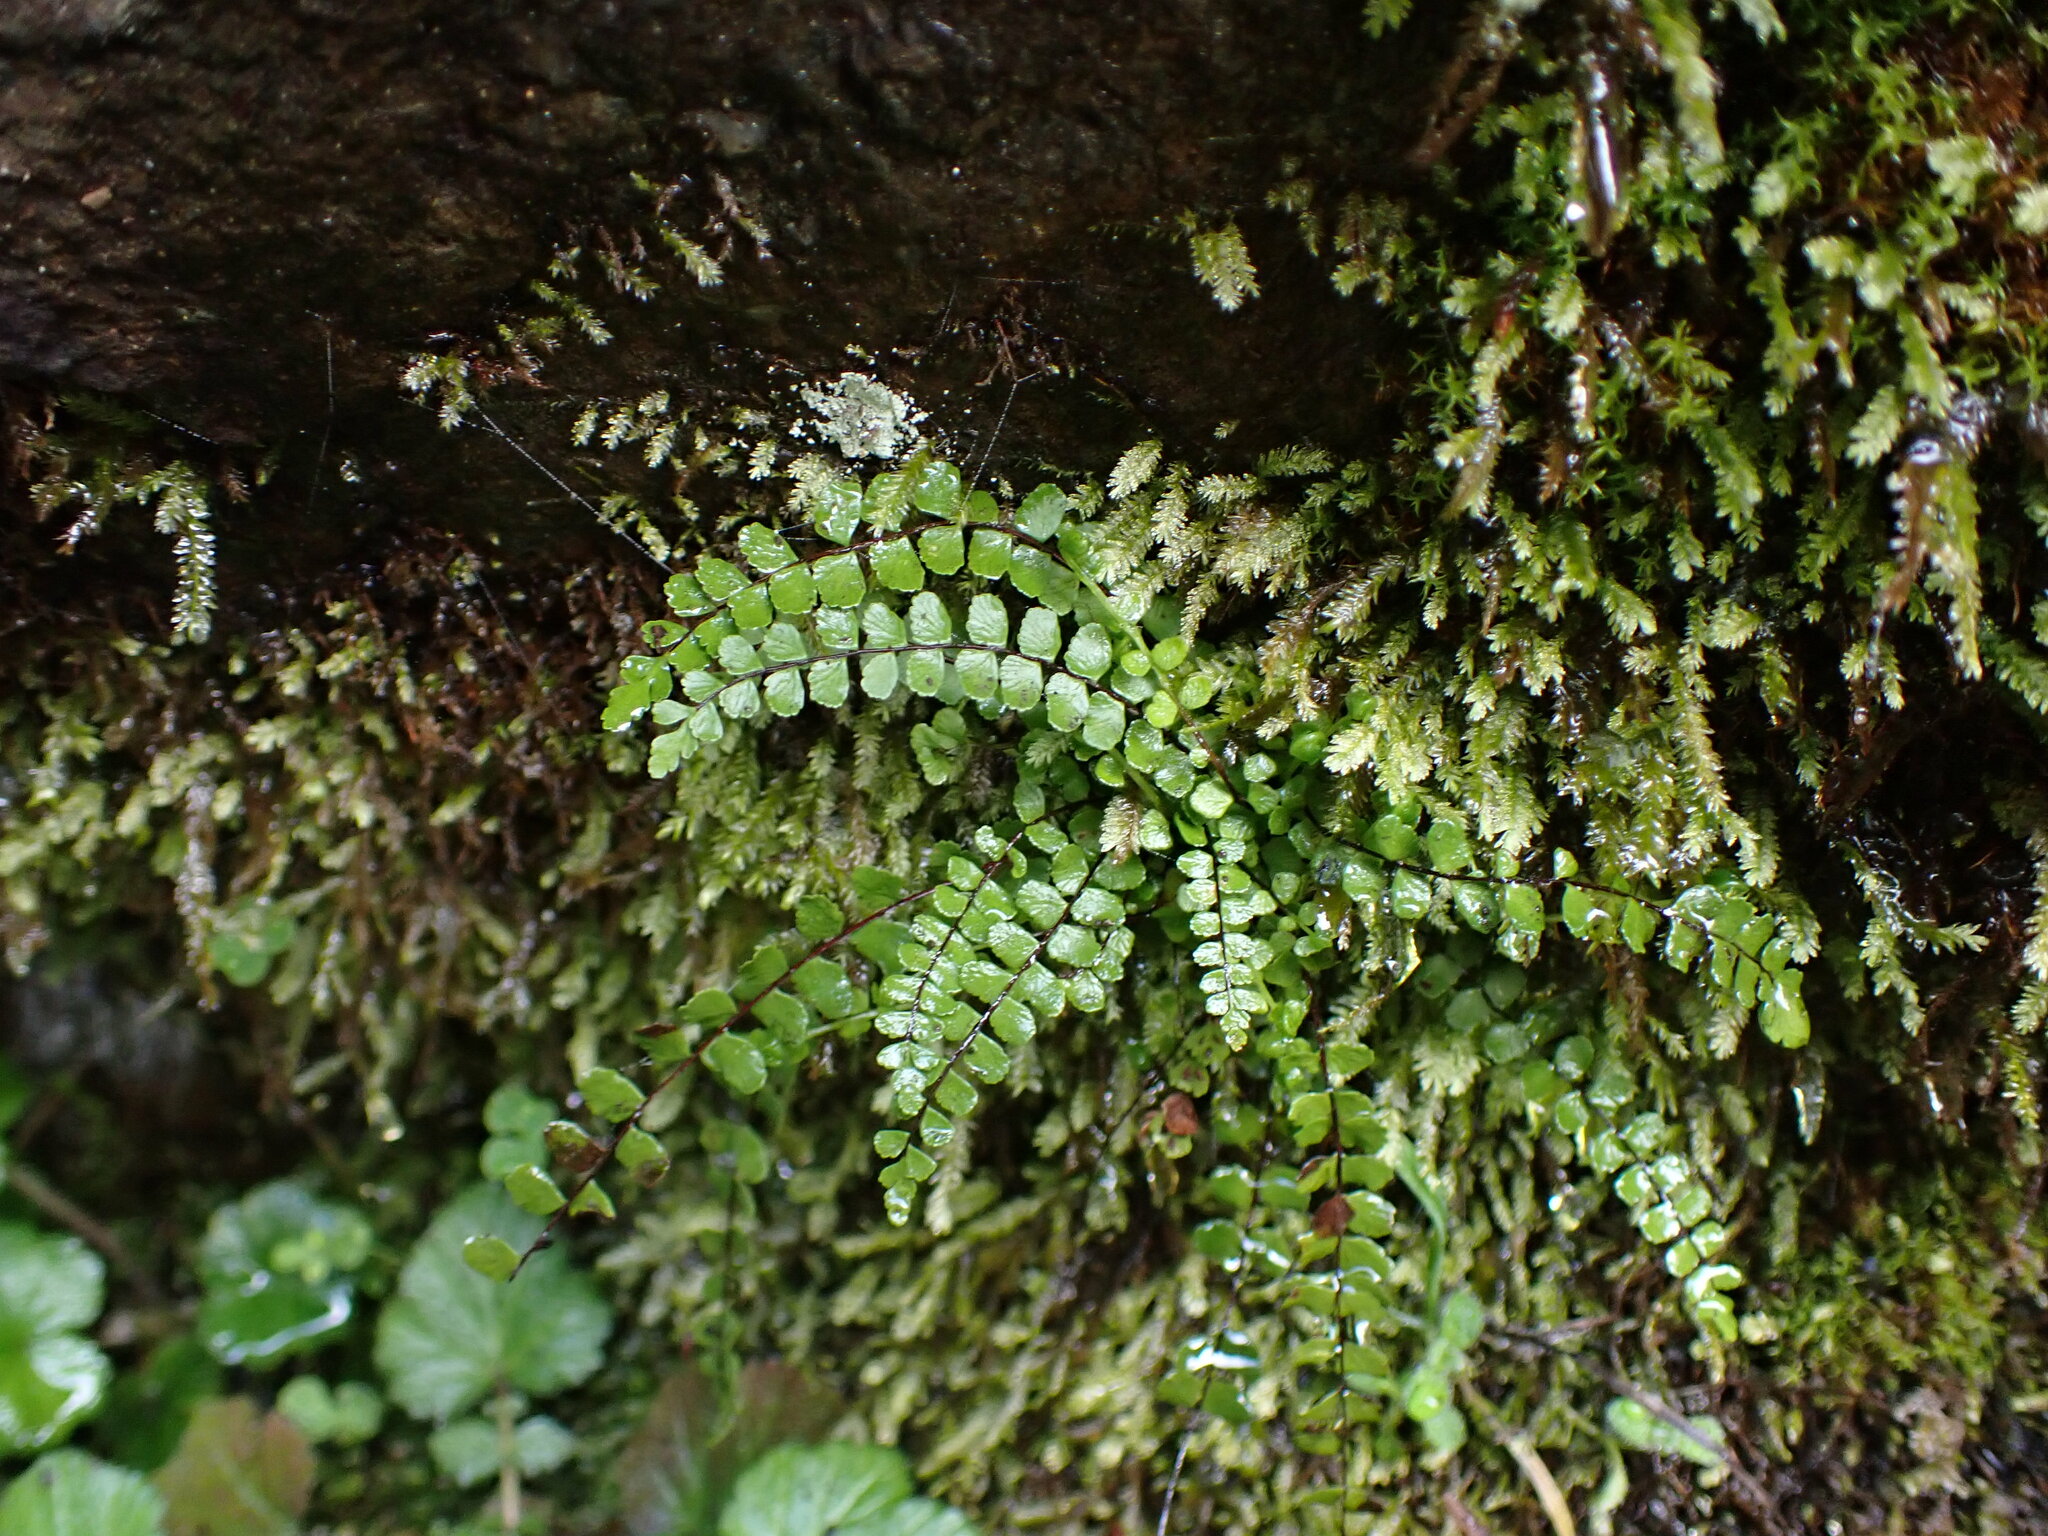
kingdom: Plantae
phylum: Tracheophyta
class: Polypodiopsida
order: Polypodiales
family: Aspleniaceae
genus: Asplenium
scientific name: Asplenium trichomanes
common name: Maidenhair spleenwort
